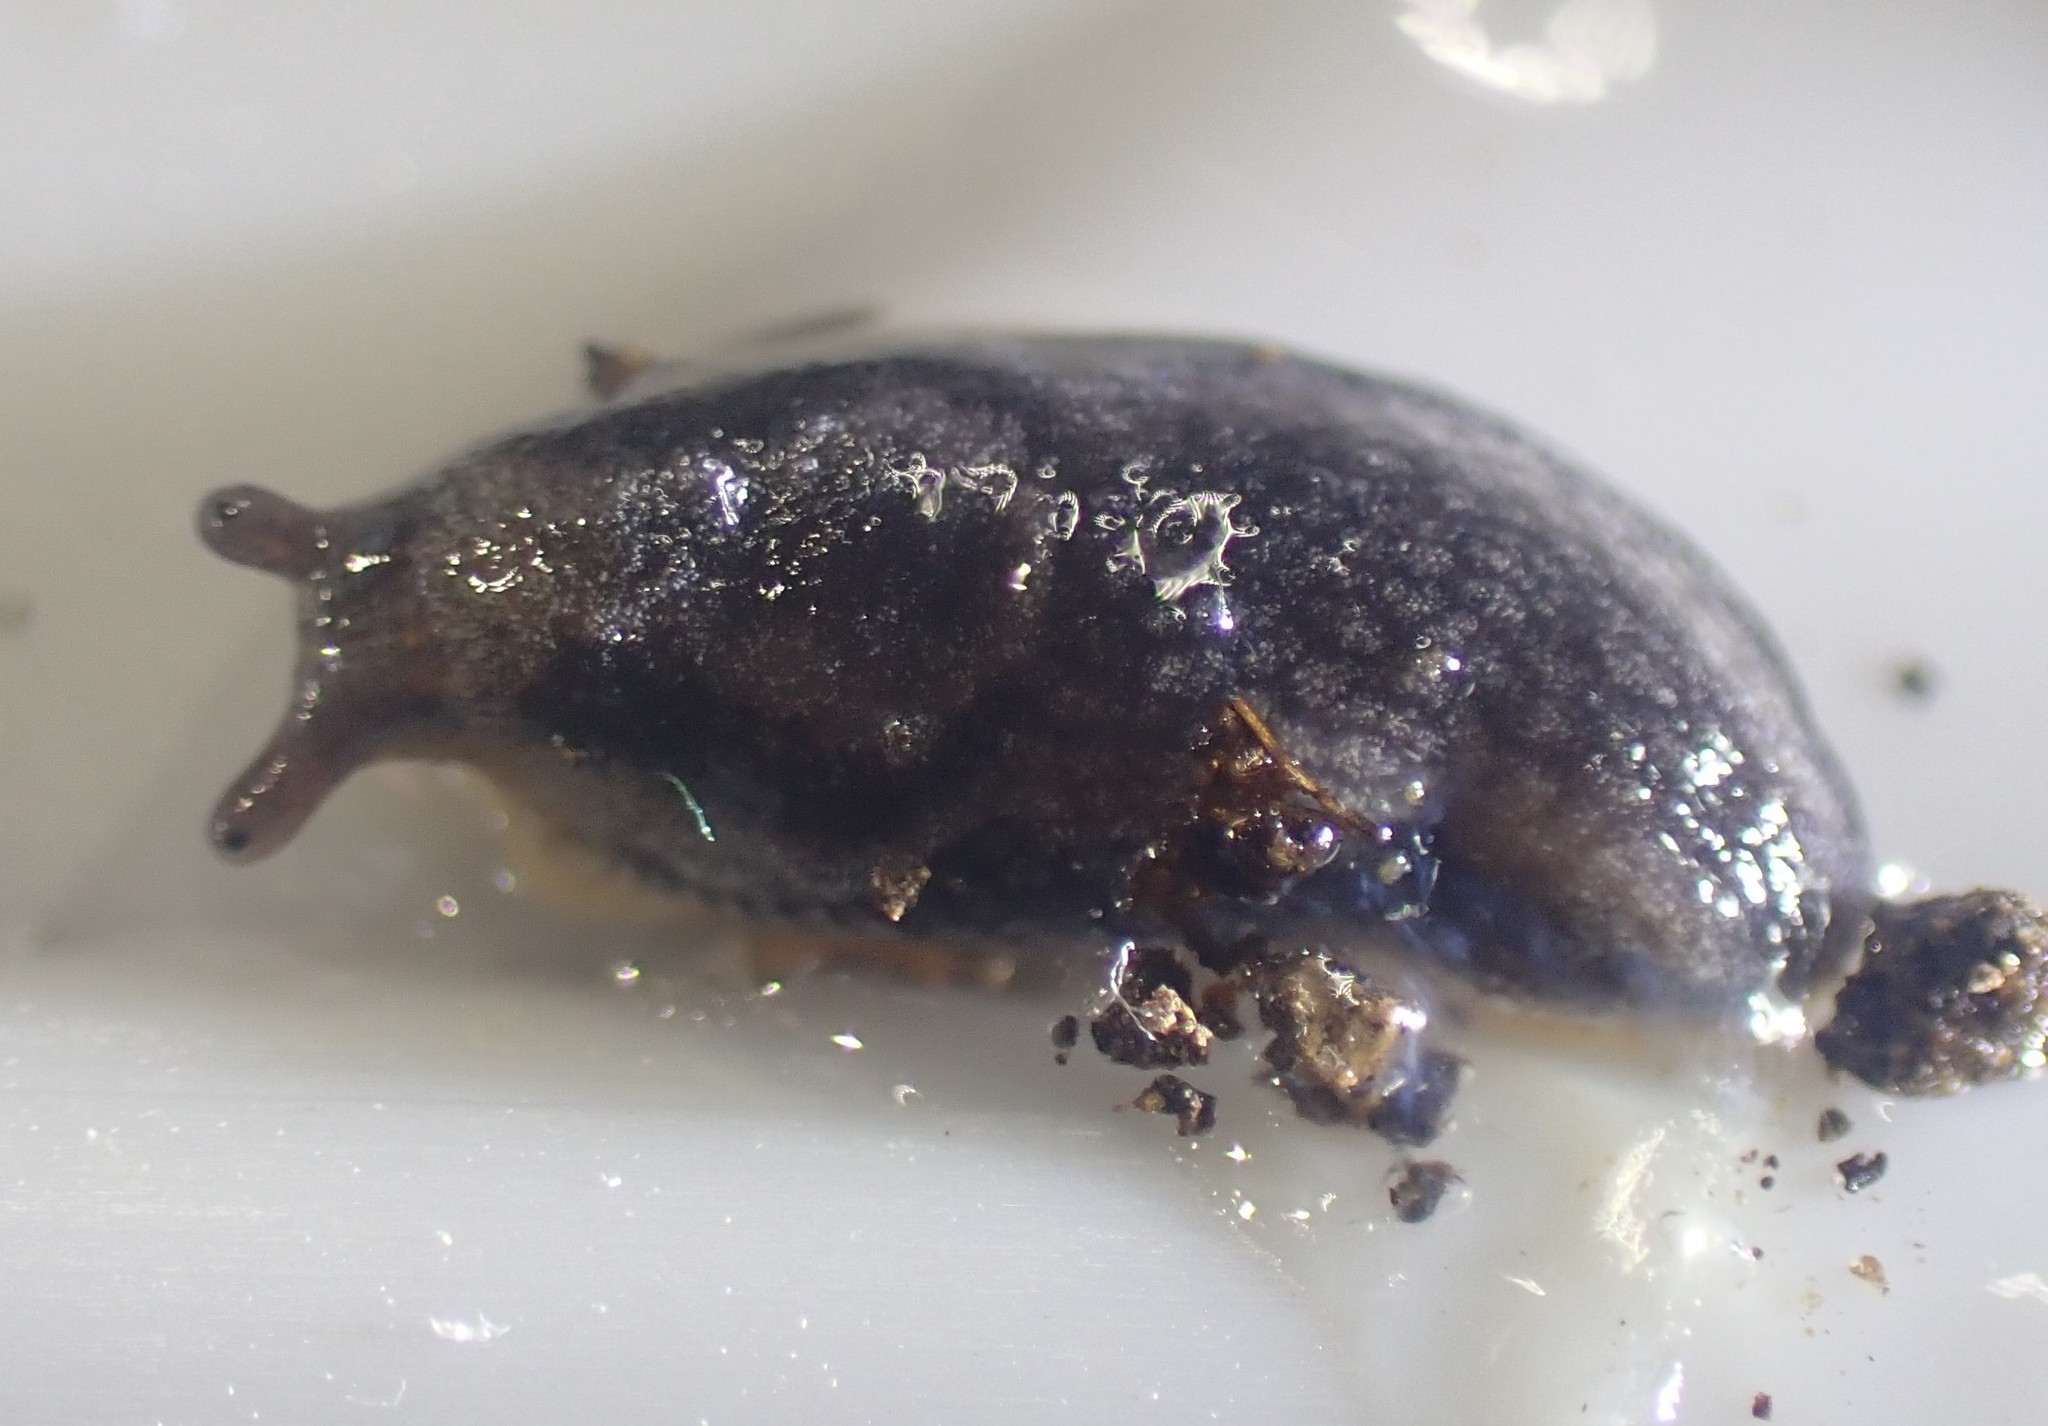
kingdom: Animalia
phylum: Mollusca
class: Gastropoda
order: Stylommatophora
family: Arionidae
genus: Kobeltia
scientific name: Kobeltia
